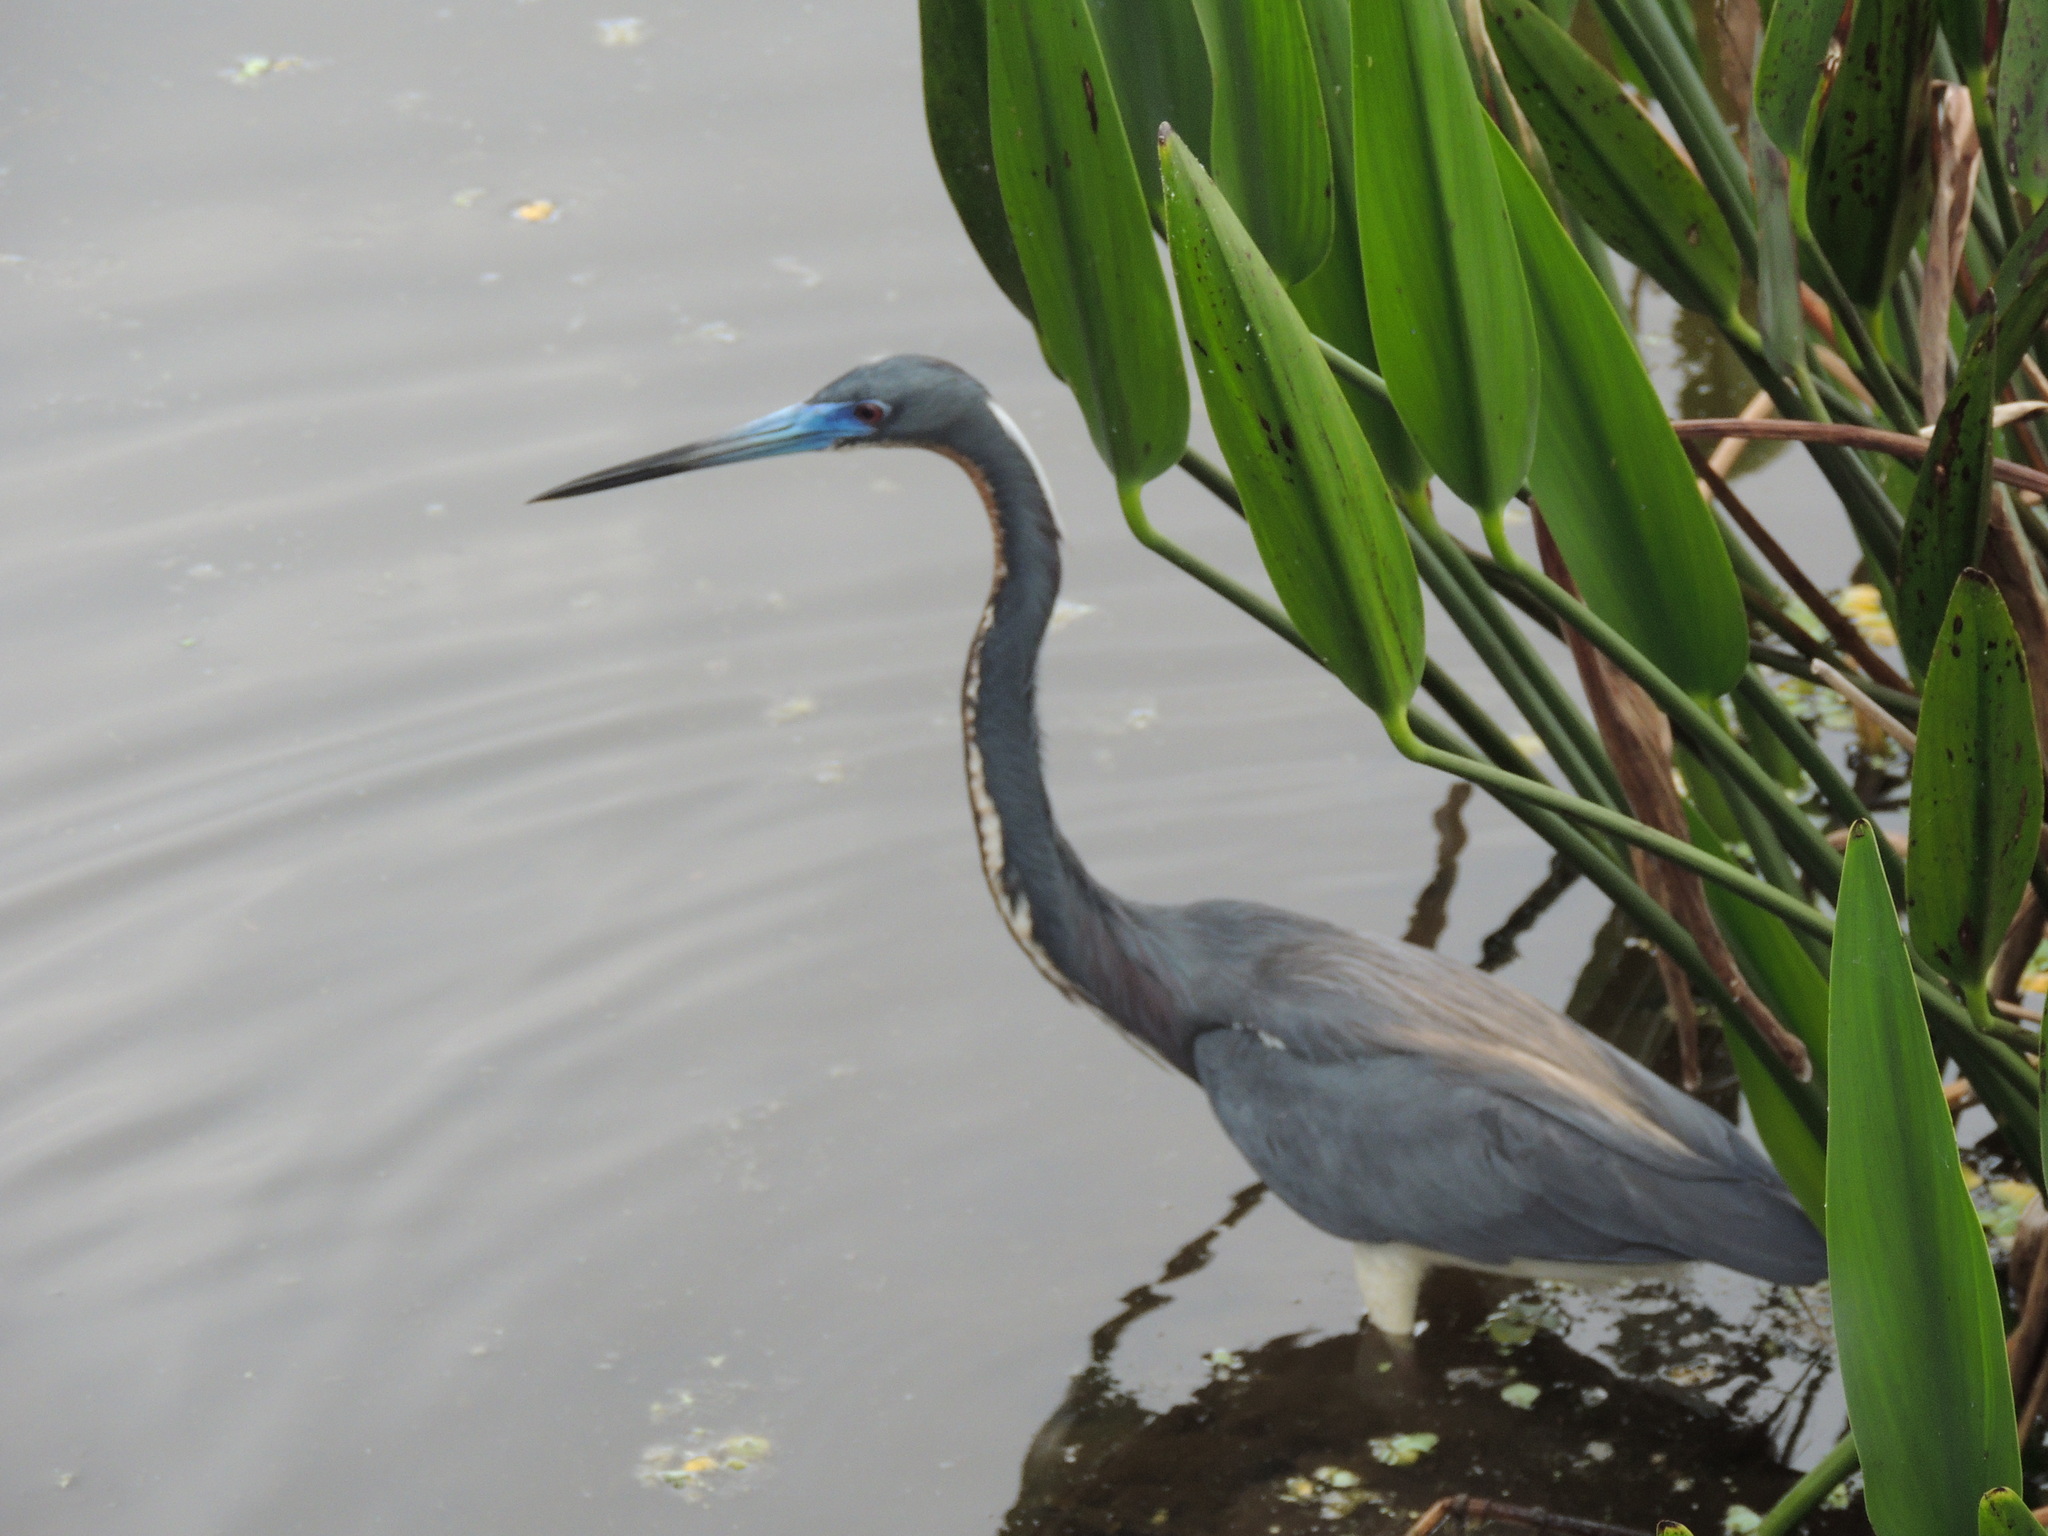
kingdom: Animalia
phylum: Chordata
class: Aves
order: Pelecaniformes
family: Ardeidae
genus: Egretta
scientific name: Egretta tricolor
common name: Tricolored heron
